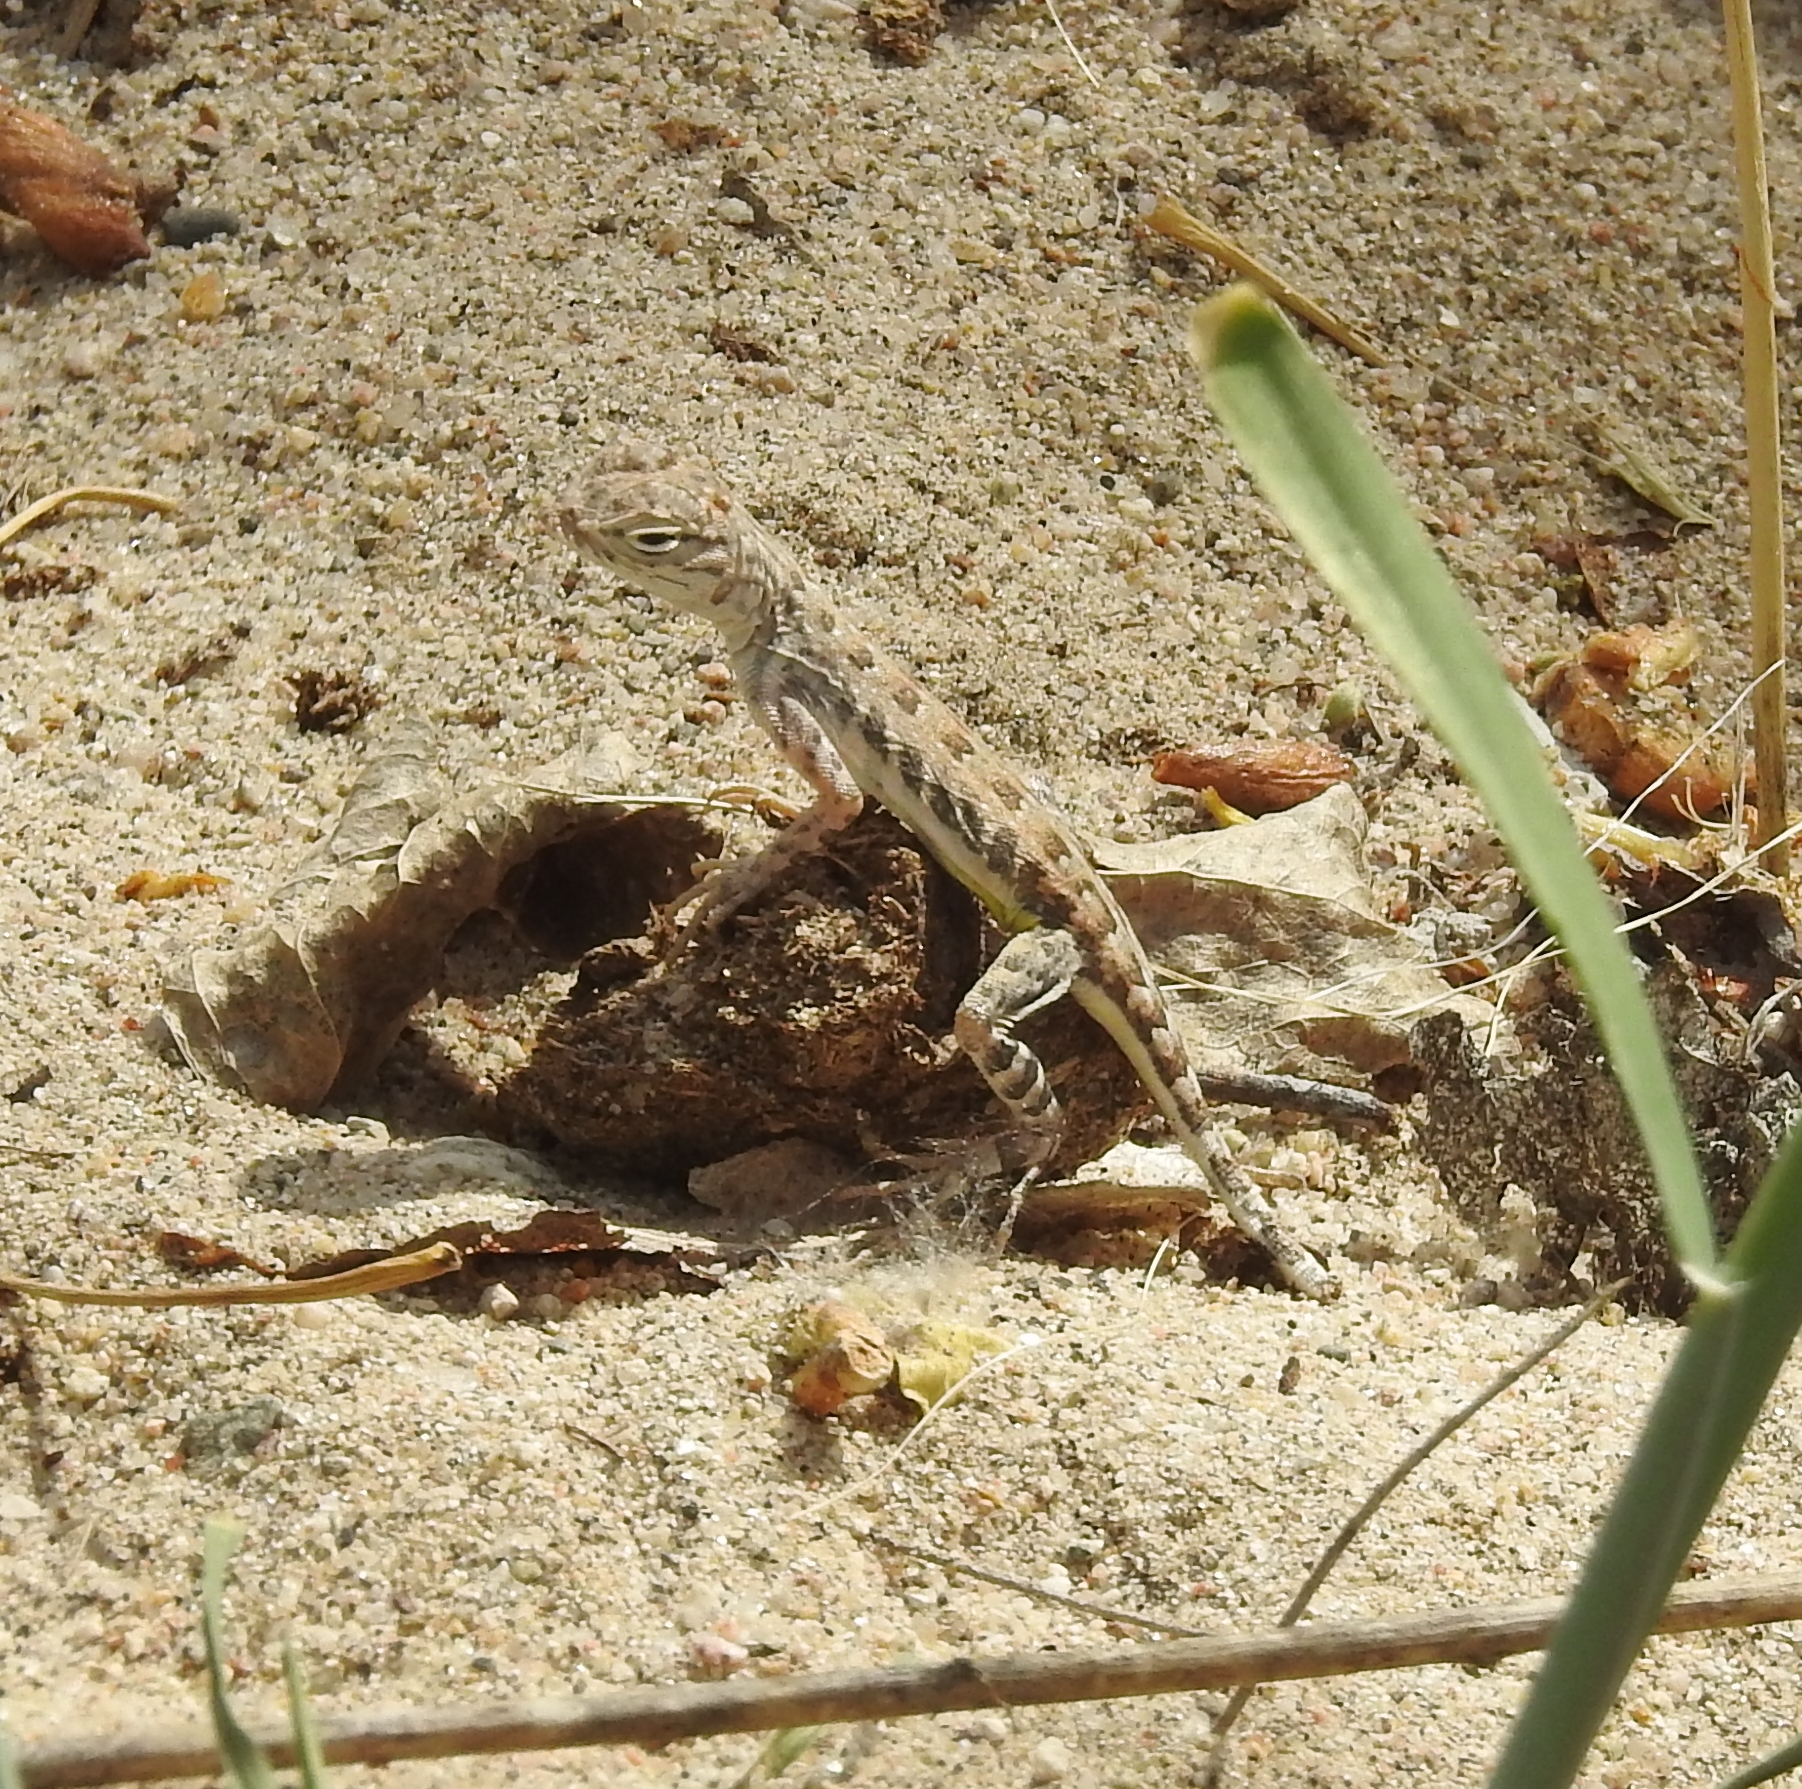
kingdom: Animalia
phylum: Chordata
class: Squamata
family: Phrynosomatidae
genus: Callisaurus
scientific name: Callisaurus draconoides
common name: Zebra-tailed lizard
